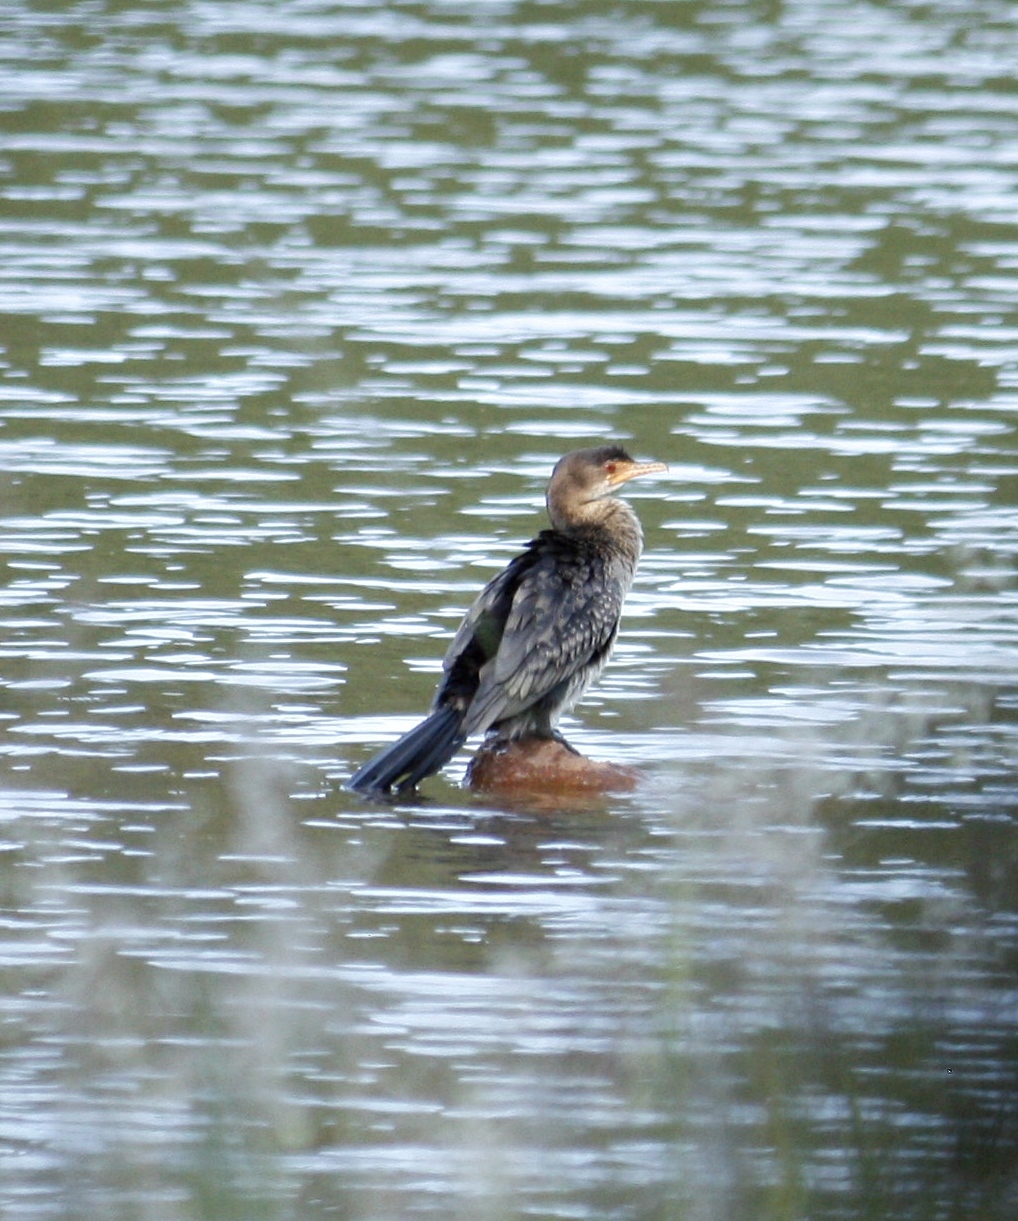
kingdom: Animalia
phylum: Chordata
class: Aves
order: Suliformes
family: Phalacrocoracidae
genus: Microcarbo
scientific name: Microcarbo africanus
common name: Long-tailed cormorant
